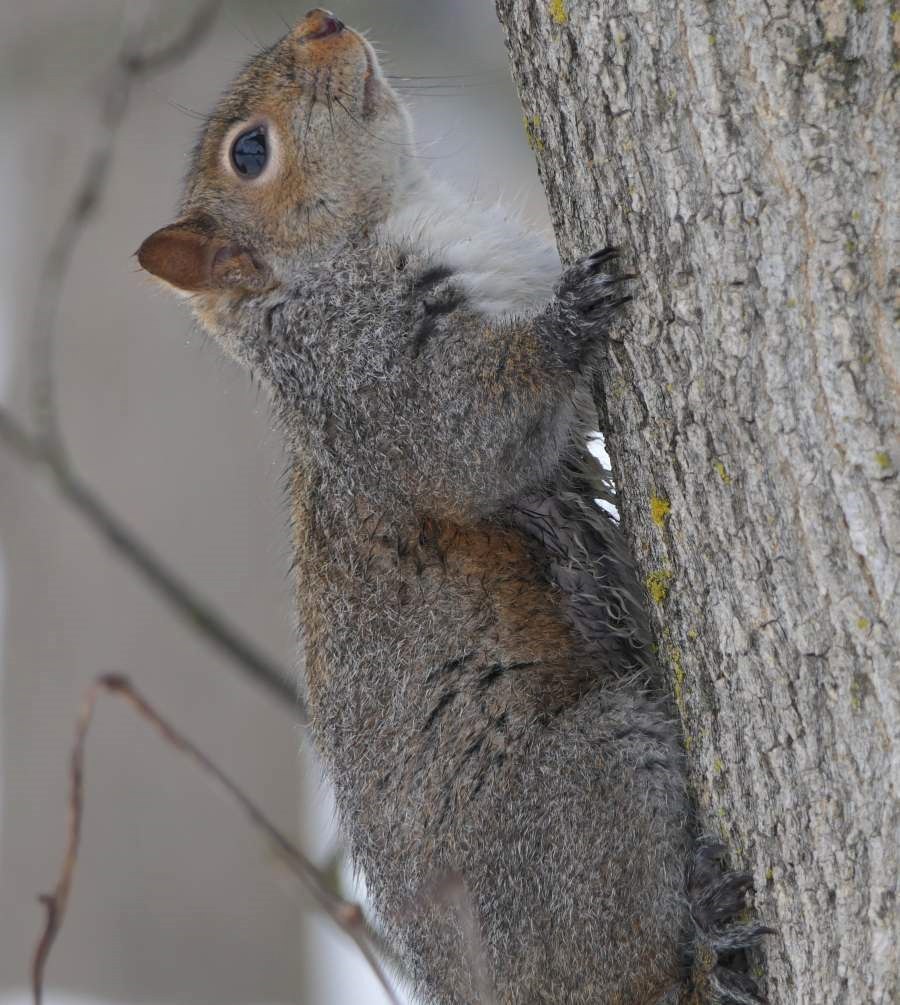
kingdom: Animalia
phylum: Chordata
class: Mammalia
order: Rodentia
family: Sciuridae
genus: Sciurus
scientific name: Sciurus carolinensis
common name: Eastern gray squirrel
